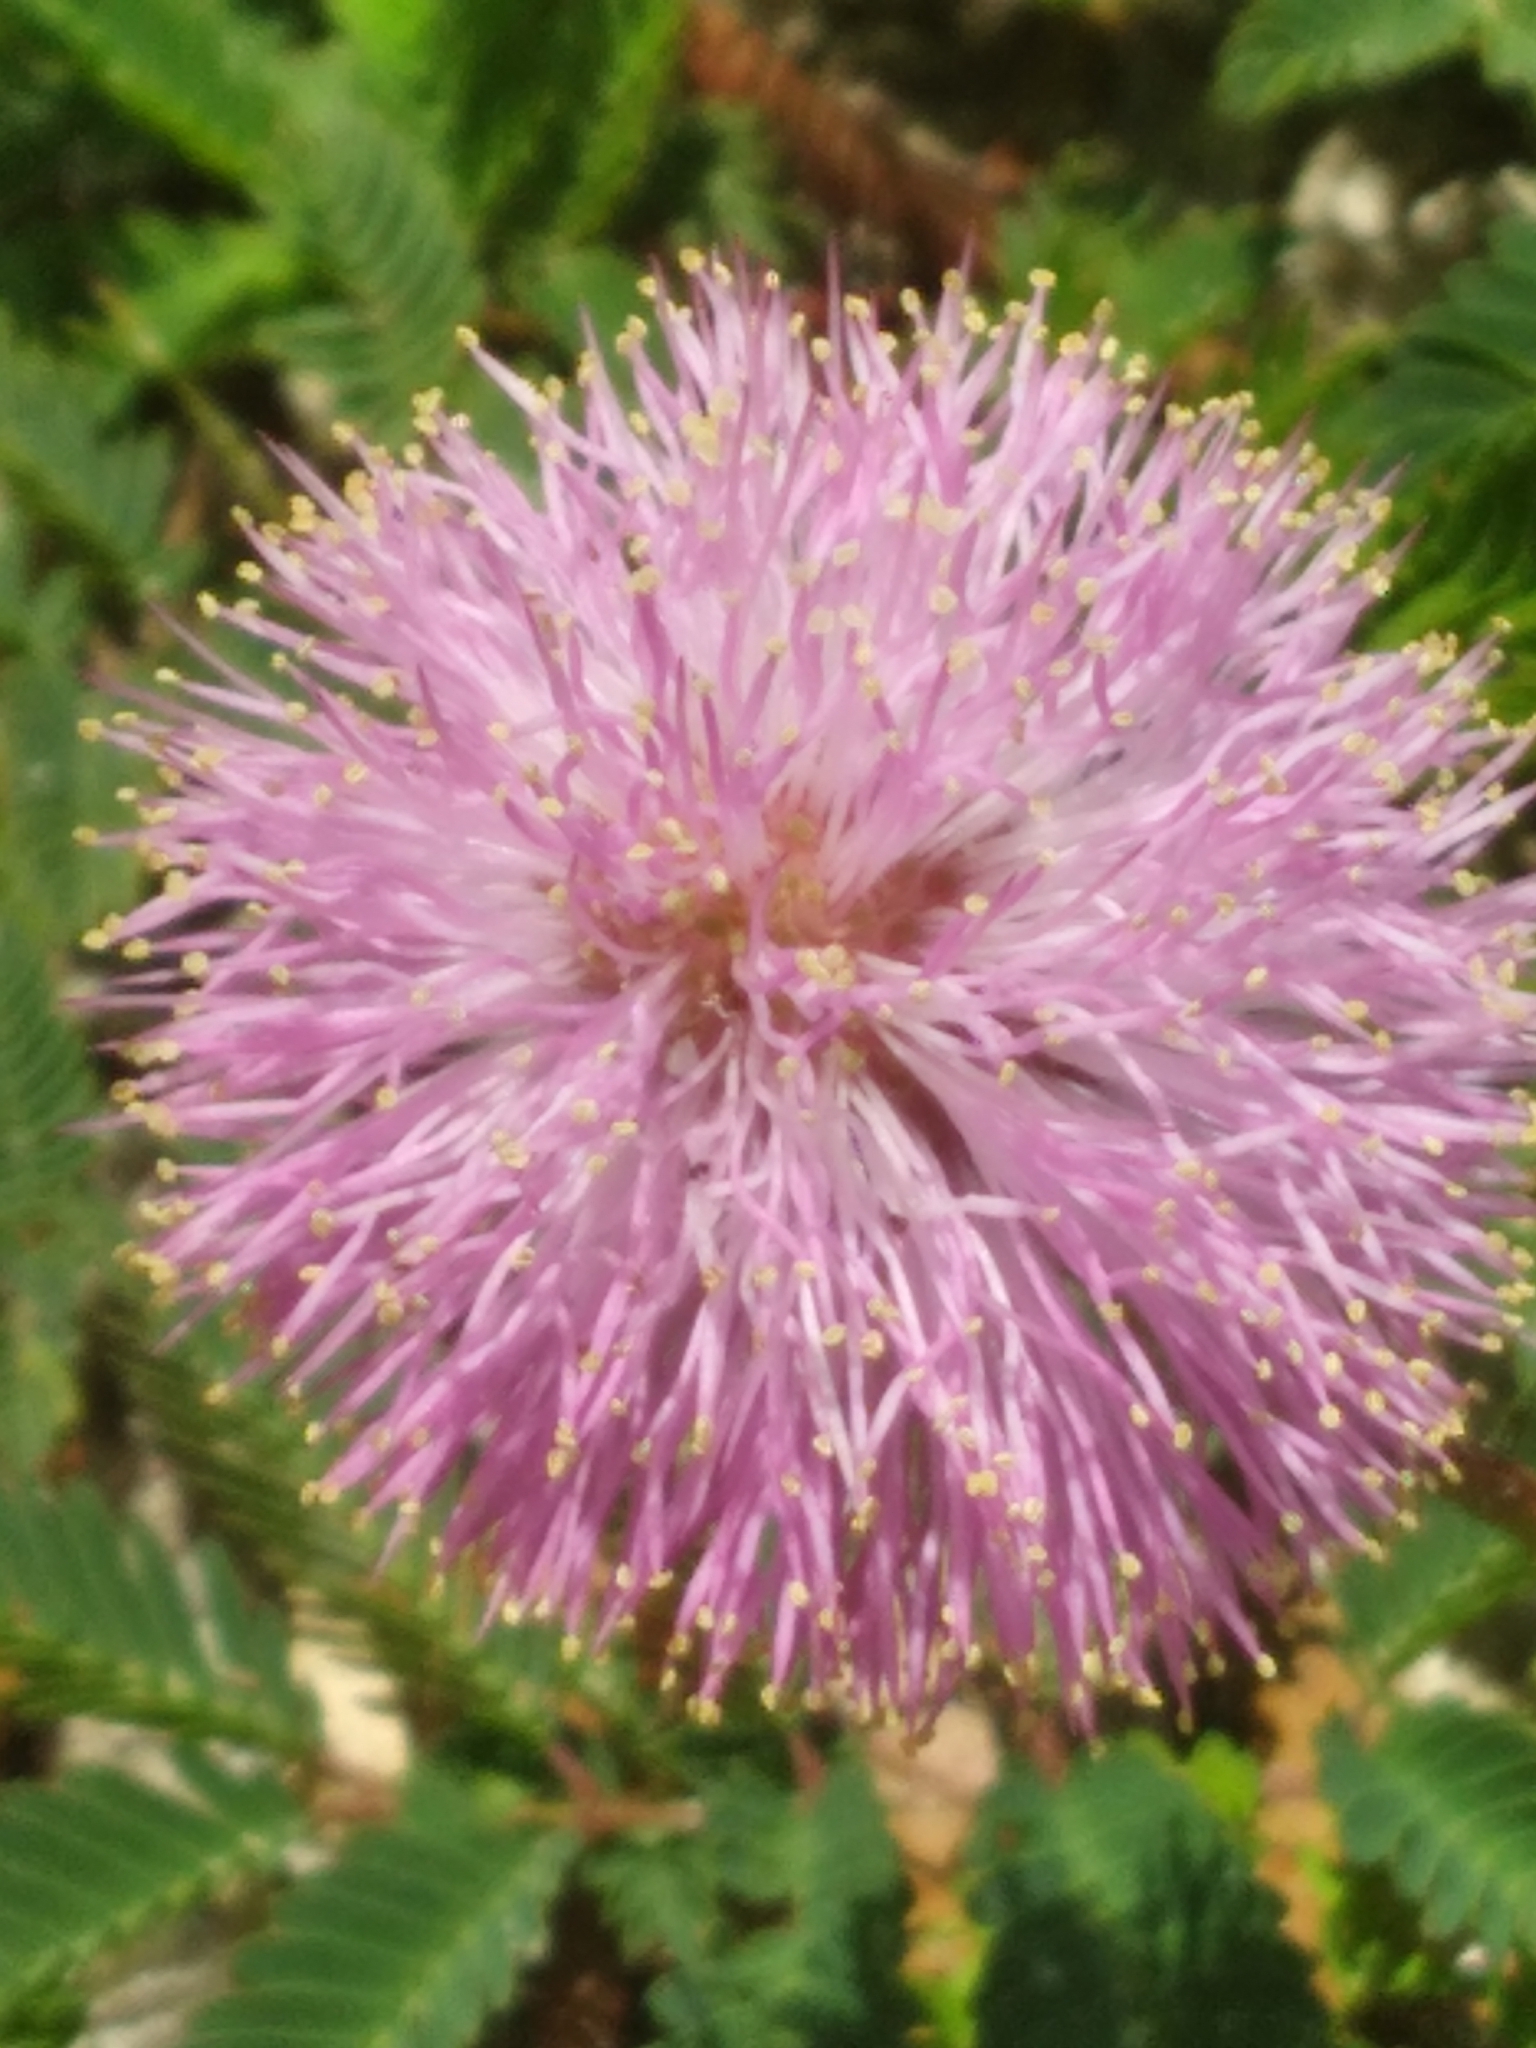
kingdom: Plantae
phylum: Tracheophyta
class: Magnoliopsida
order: Fabales
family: Fabaceae
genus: Mimosa
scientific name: Mimosa strigillosa
